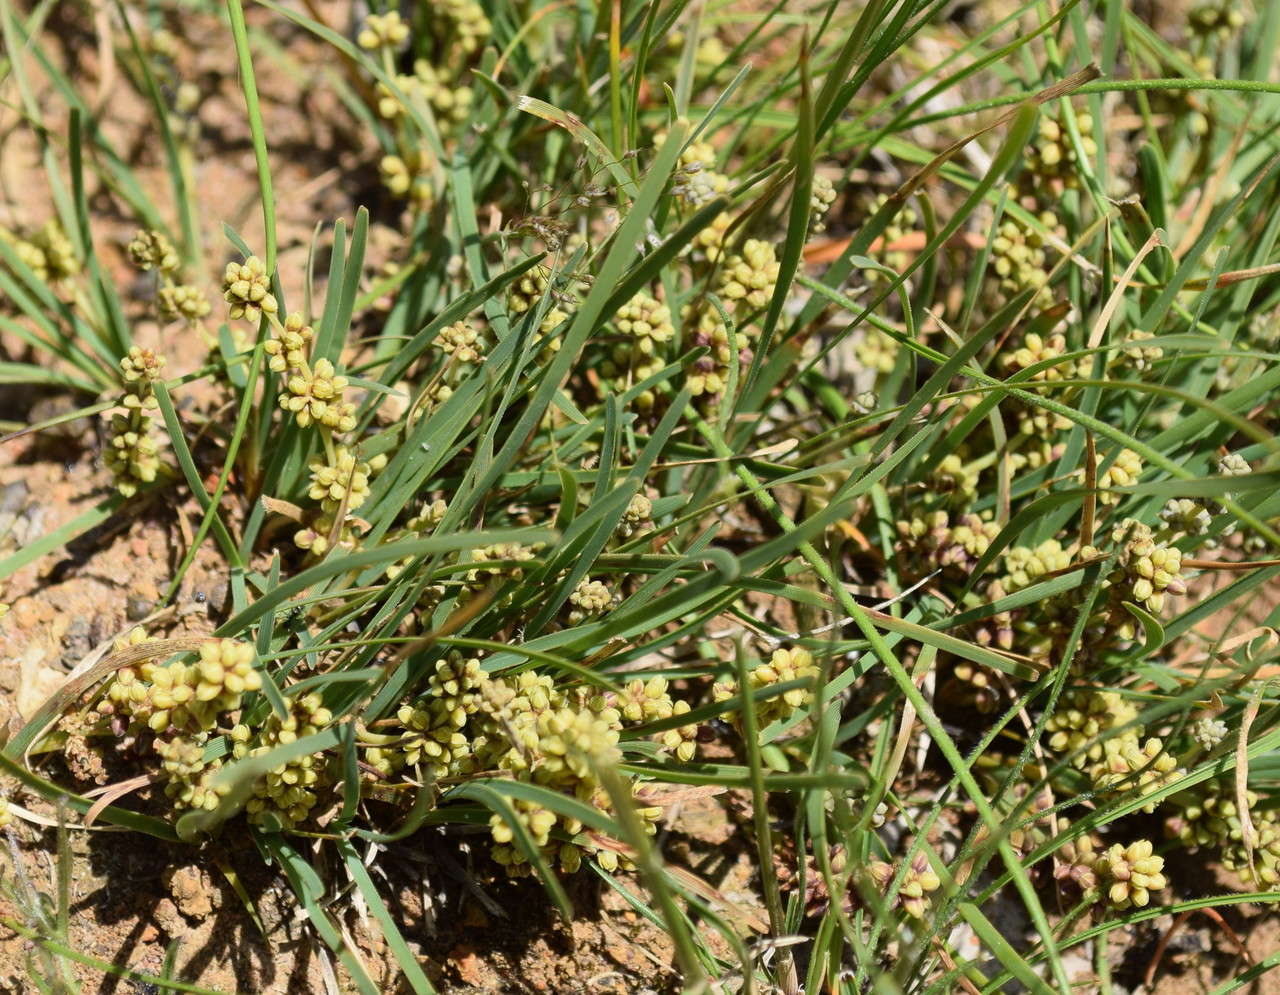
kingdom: Plantae
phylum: Tracheophyta
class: Liliopsida
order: Asparagales
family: Asparagaceae
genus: Lomandra
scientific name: Lomandra filiformis
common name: Wattle mat-rush
